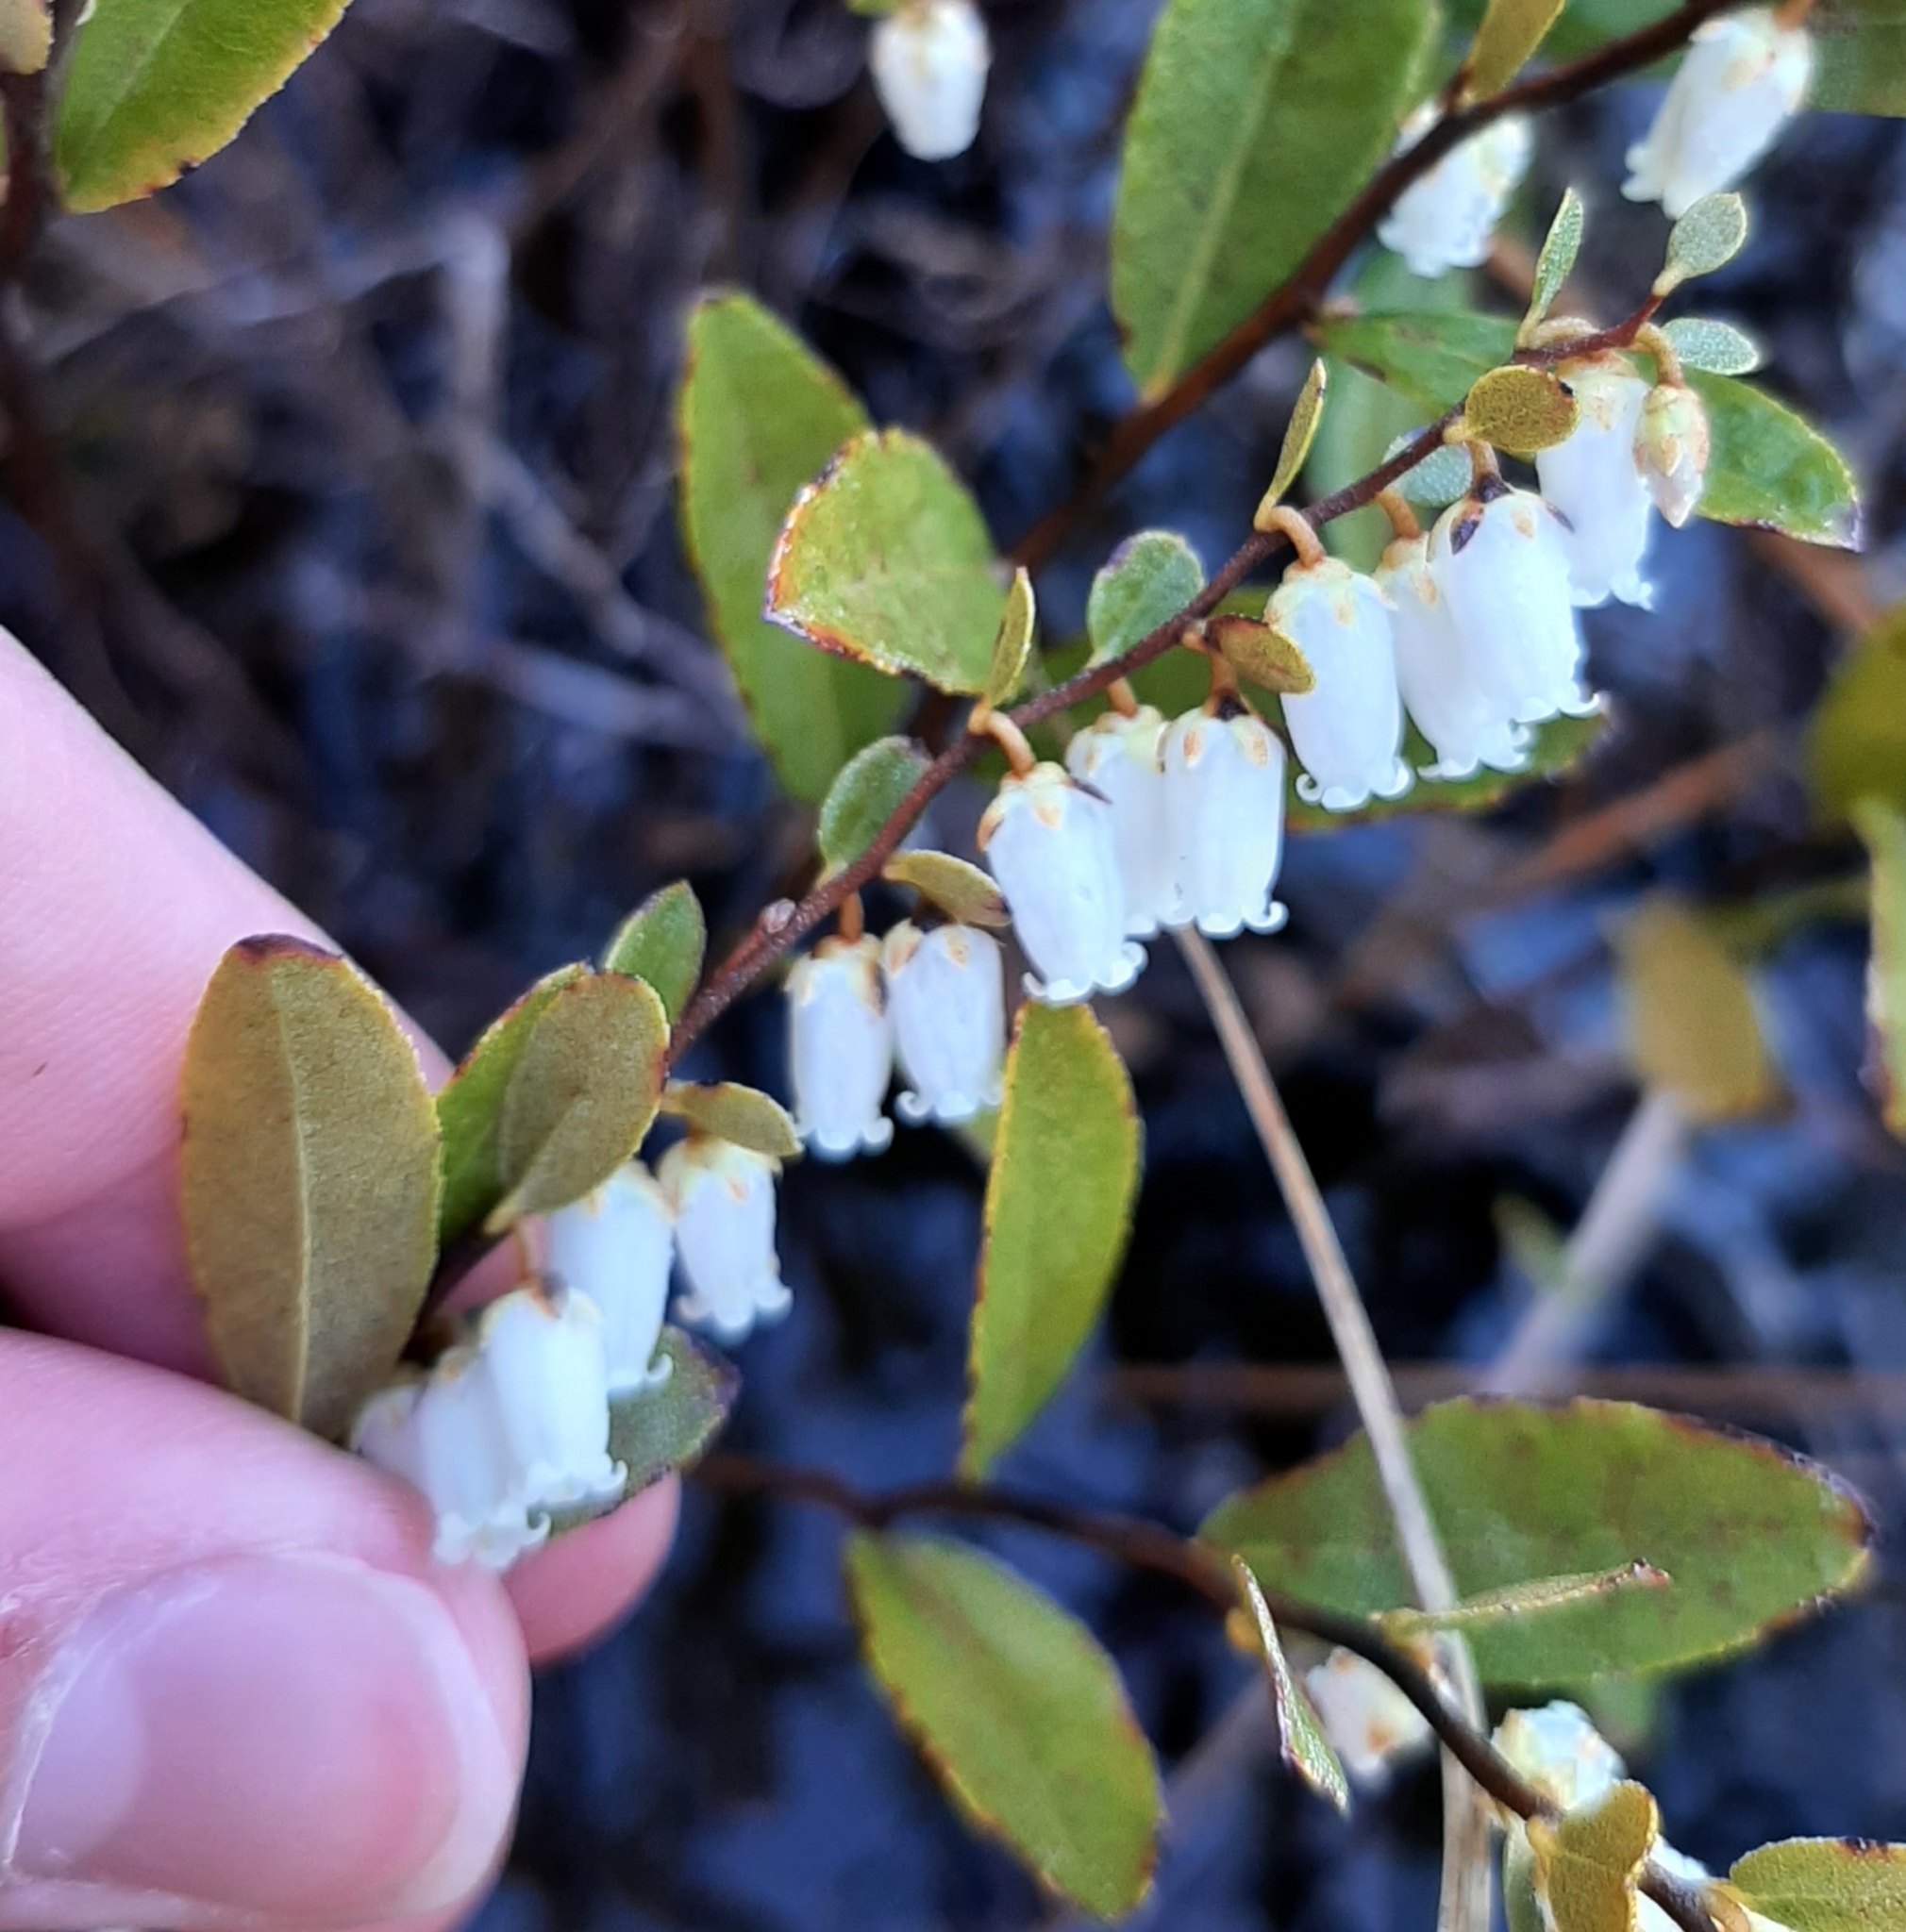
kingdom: Plantae
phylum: Tracheophyta
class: Magnoliopsida
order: Ericales
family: Ericaceae
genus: Chamaedaphne
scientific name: Chamaedaphne calyculata
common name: Leatherleaf
